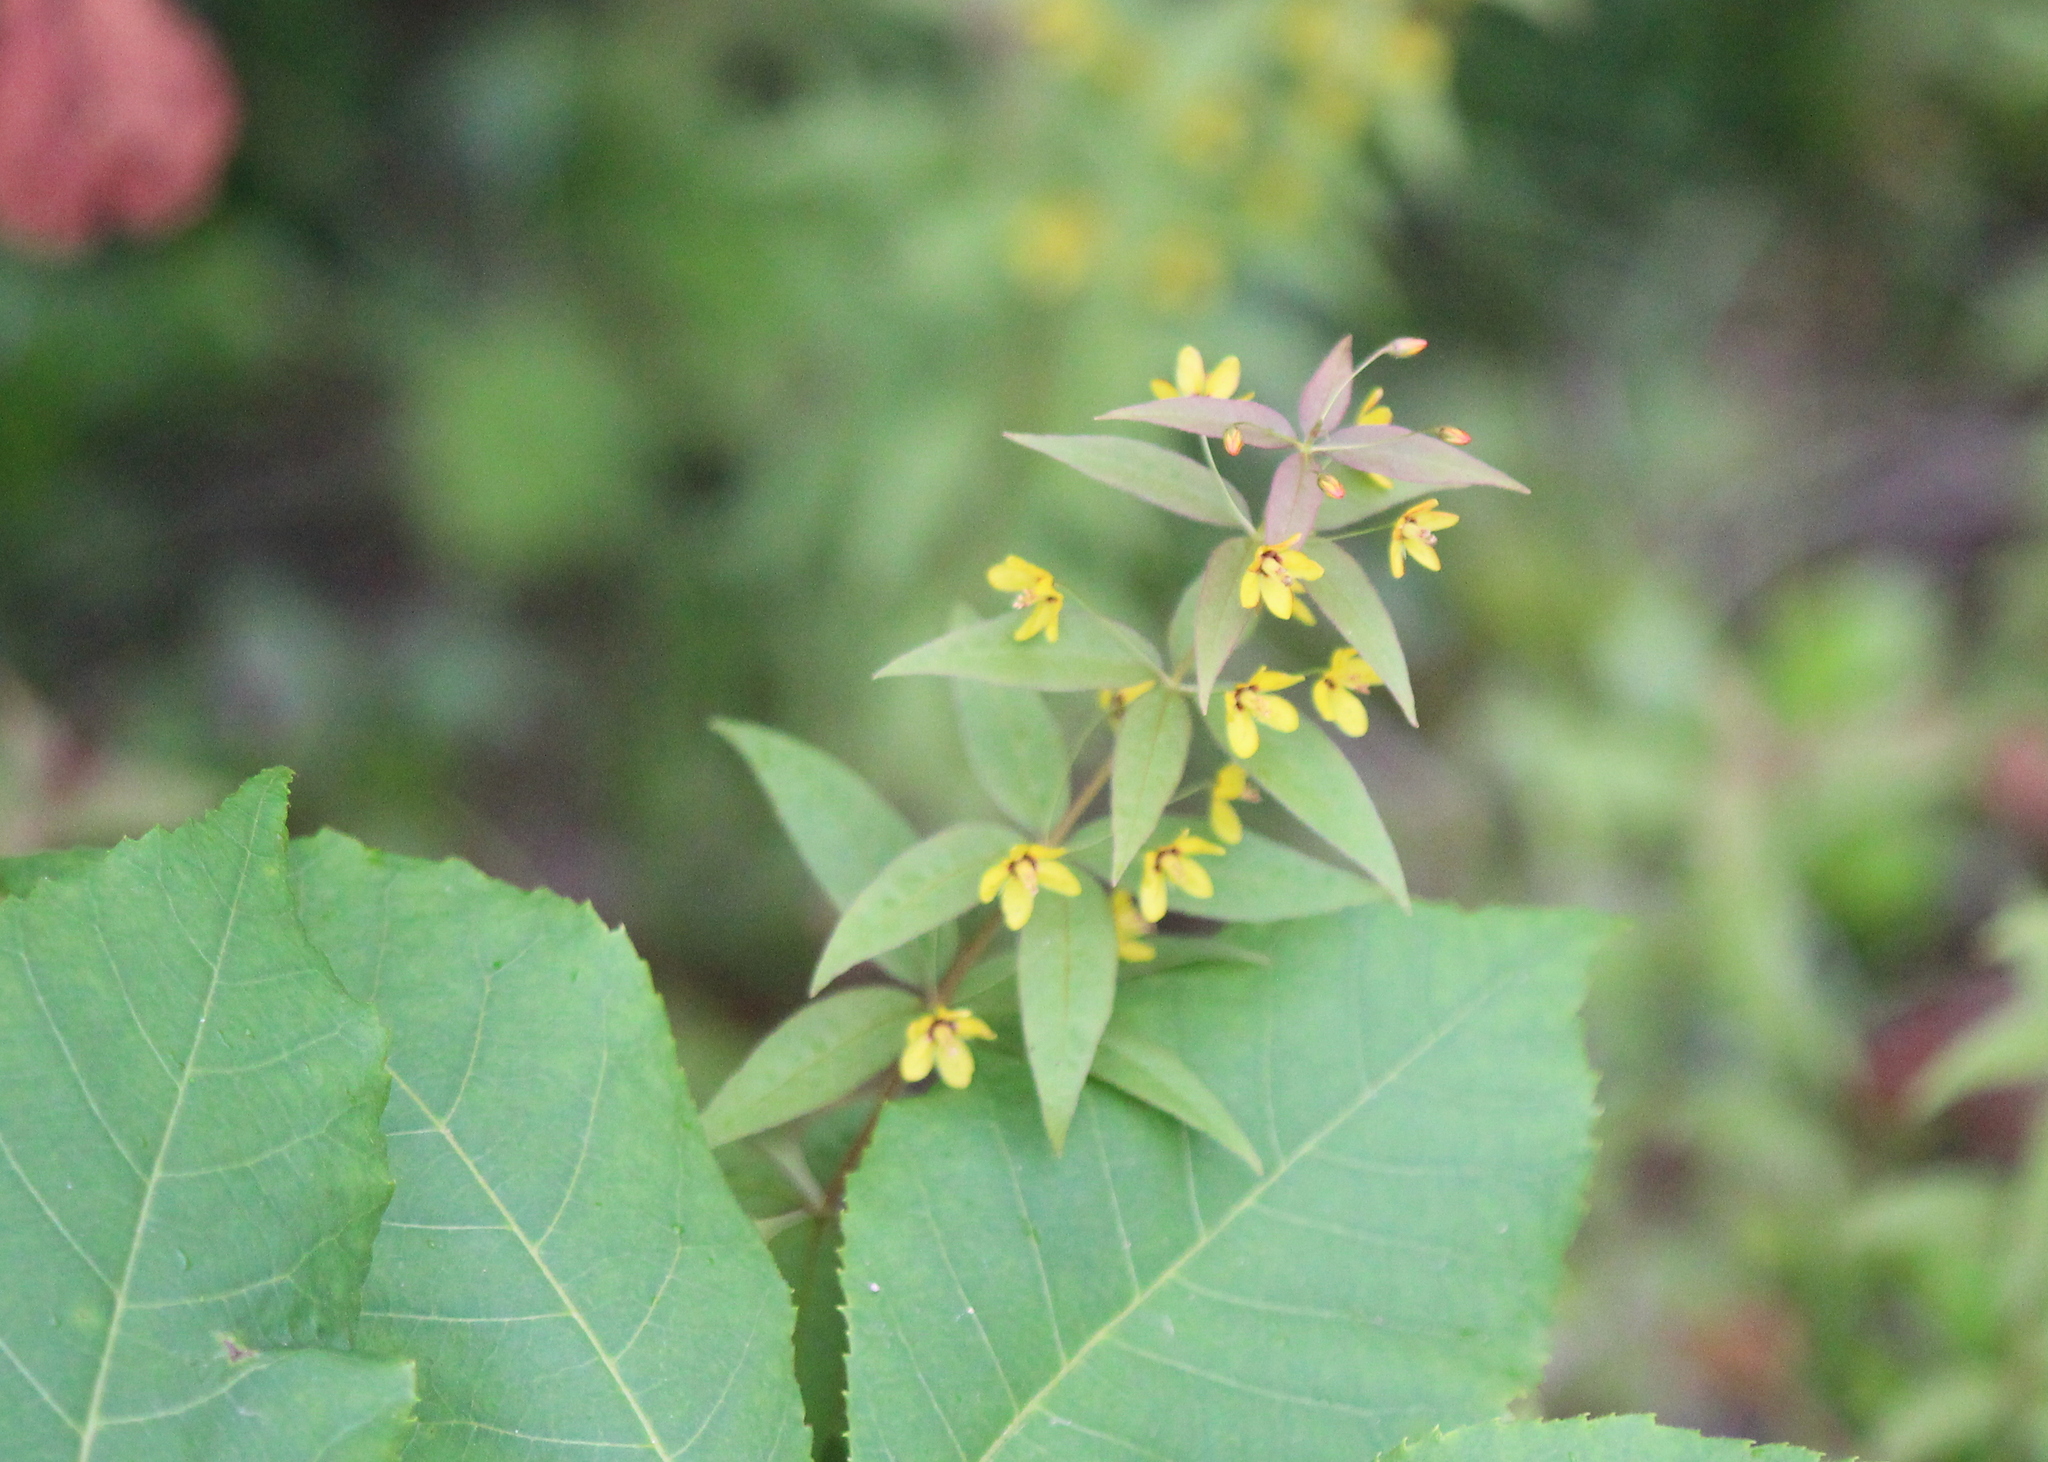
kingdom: Plantae
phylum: Tracheophyta
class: Magnoliopsida
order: Ericales
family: Primulaceae
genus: Lysimachia
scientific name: Lysimachia quadrifolia
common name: Whorled loosestrife
